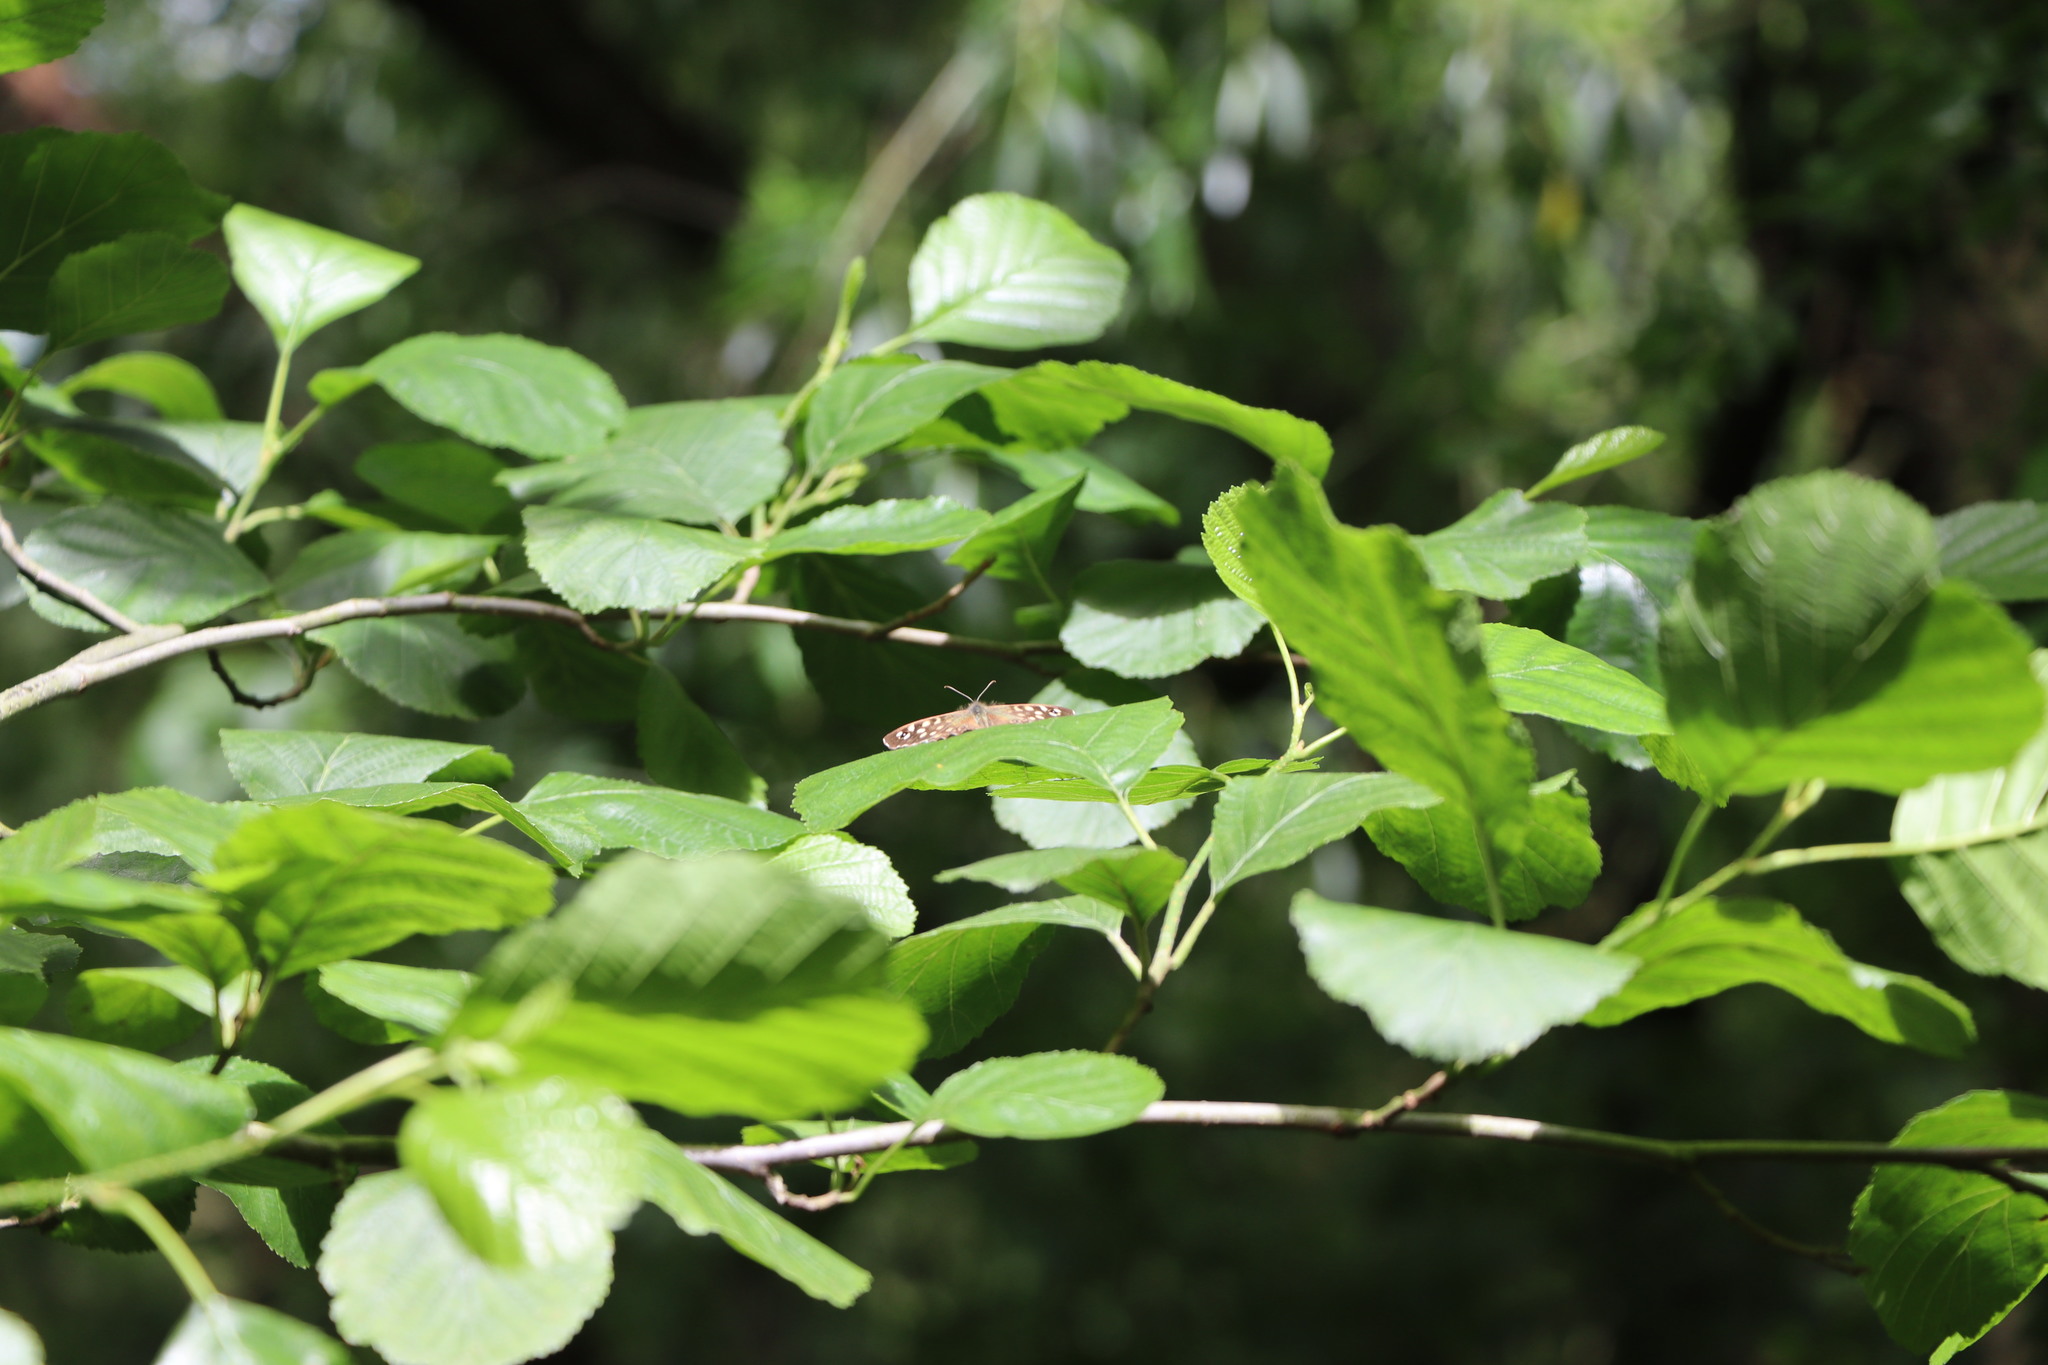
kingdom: Animalia
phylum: Arthropoda
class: Insecta
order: Lepidoptera
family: Nymphalidae
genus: Pararge
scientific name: Pararge aegeria
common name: Speckled wood
